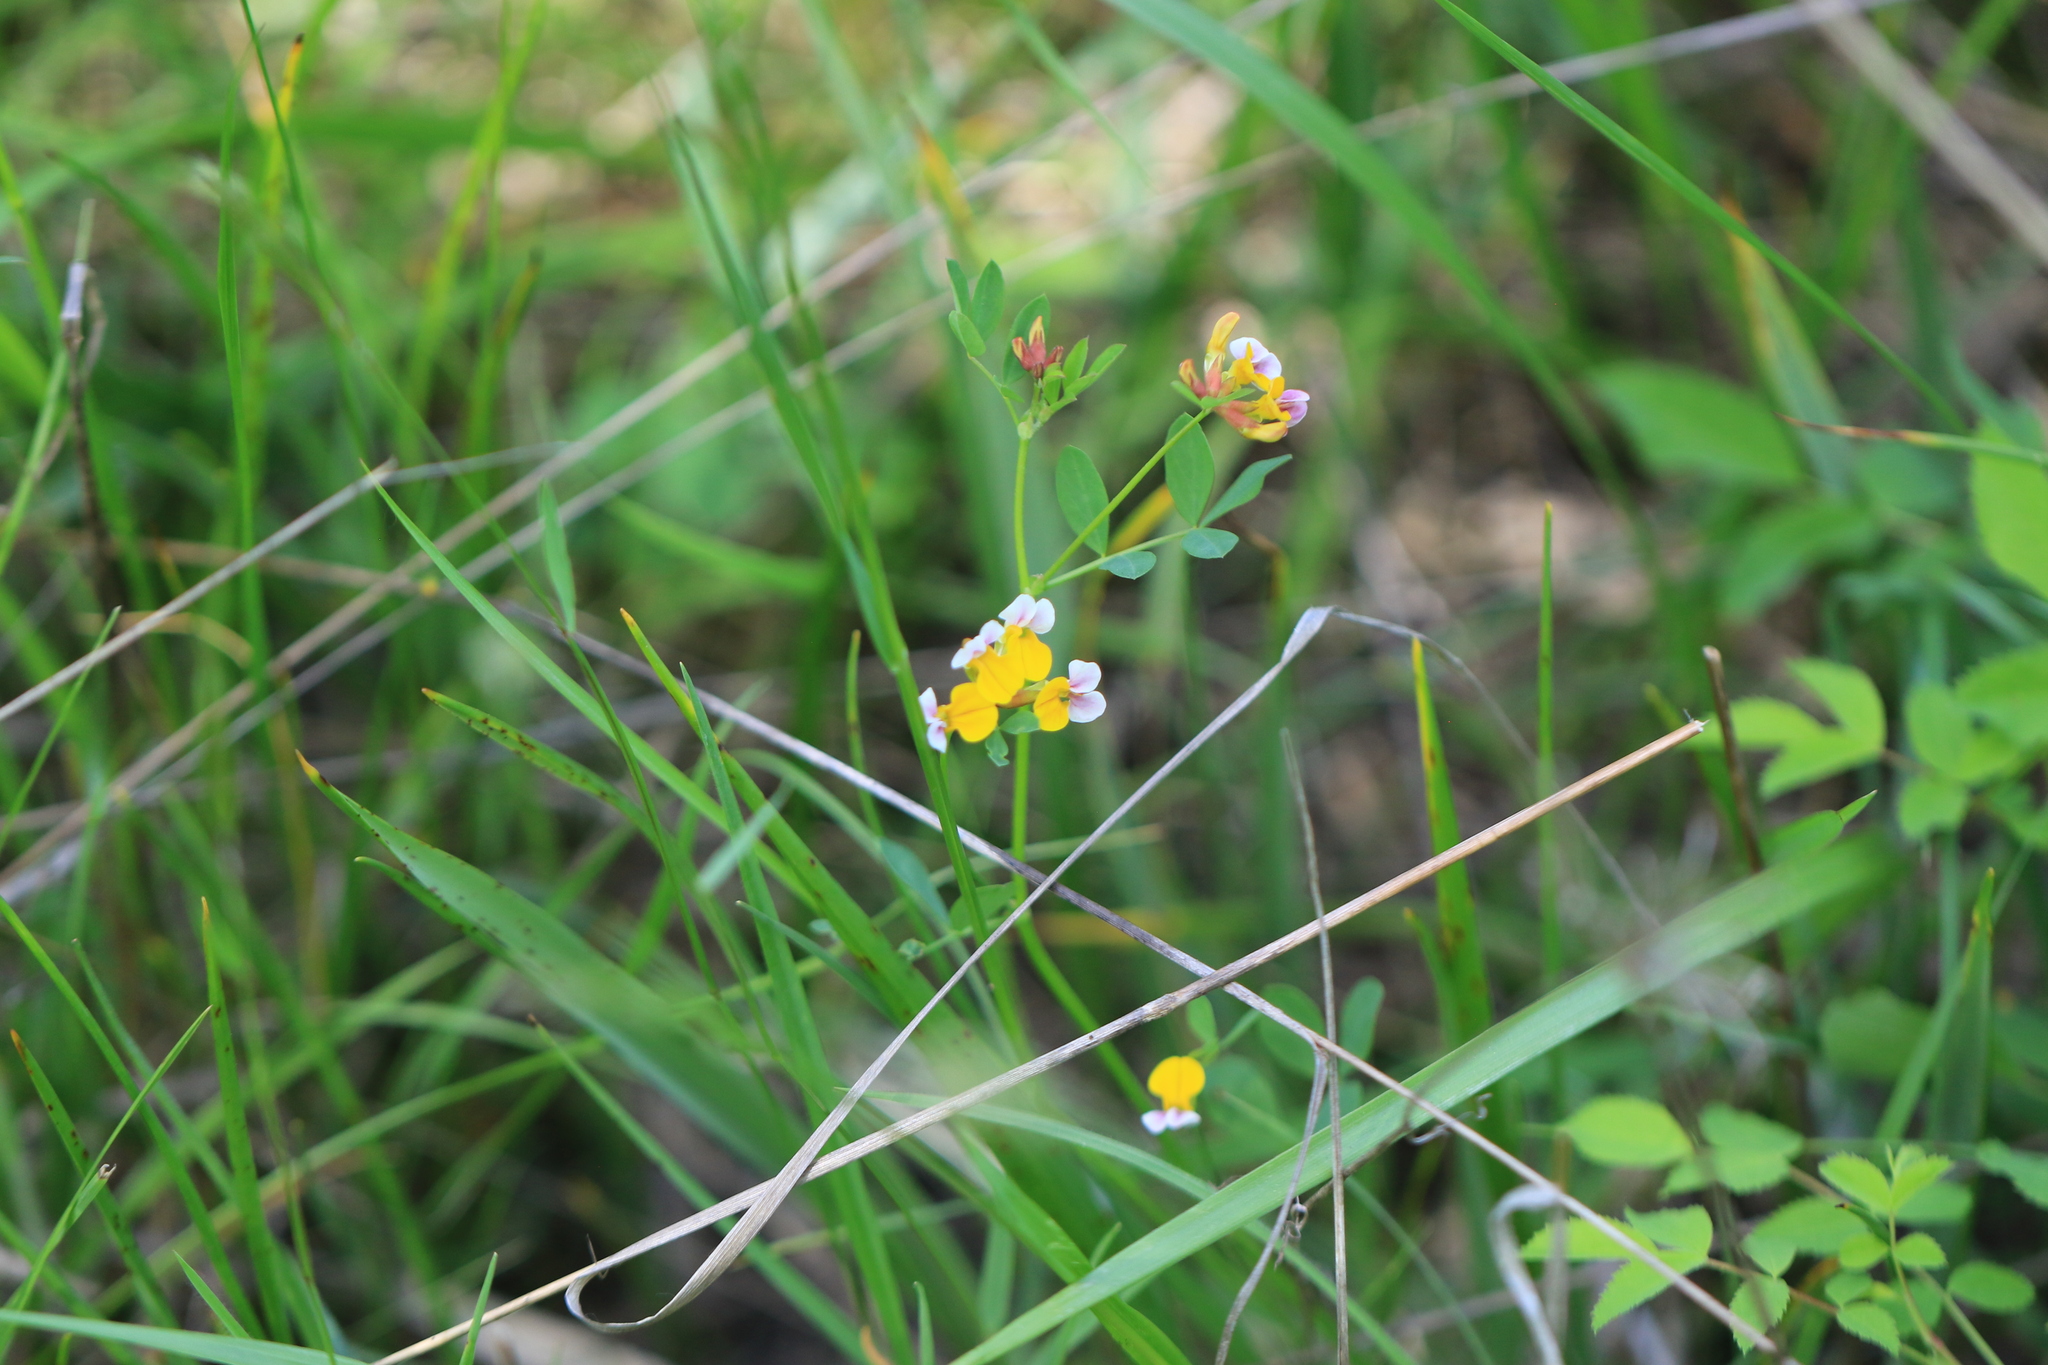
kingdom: Plantae
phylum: Tracheophyta
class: Magnoliopsida
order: Fabales
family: Fabaceae
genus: Hosackia
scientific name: Hosackia gracilis
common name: Seaside bird's-foot lotus
